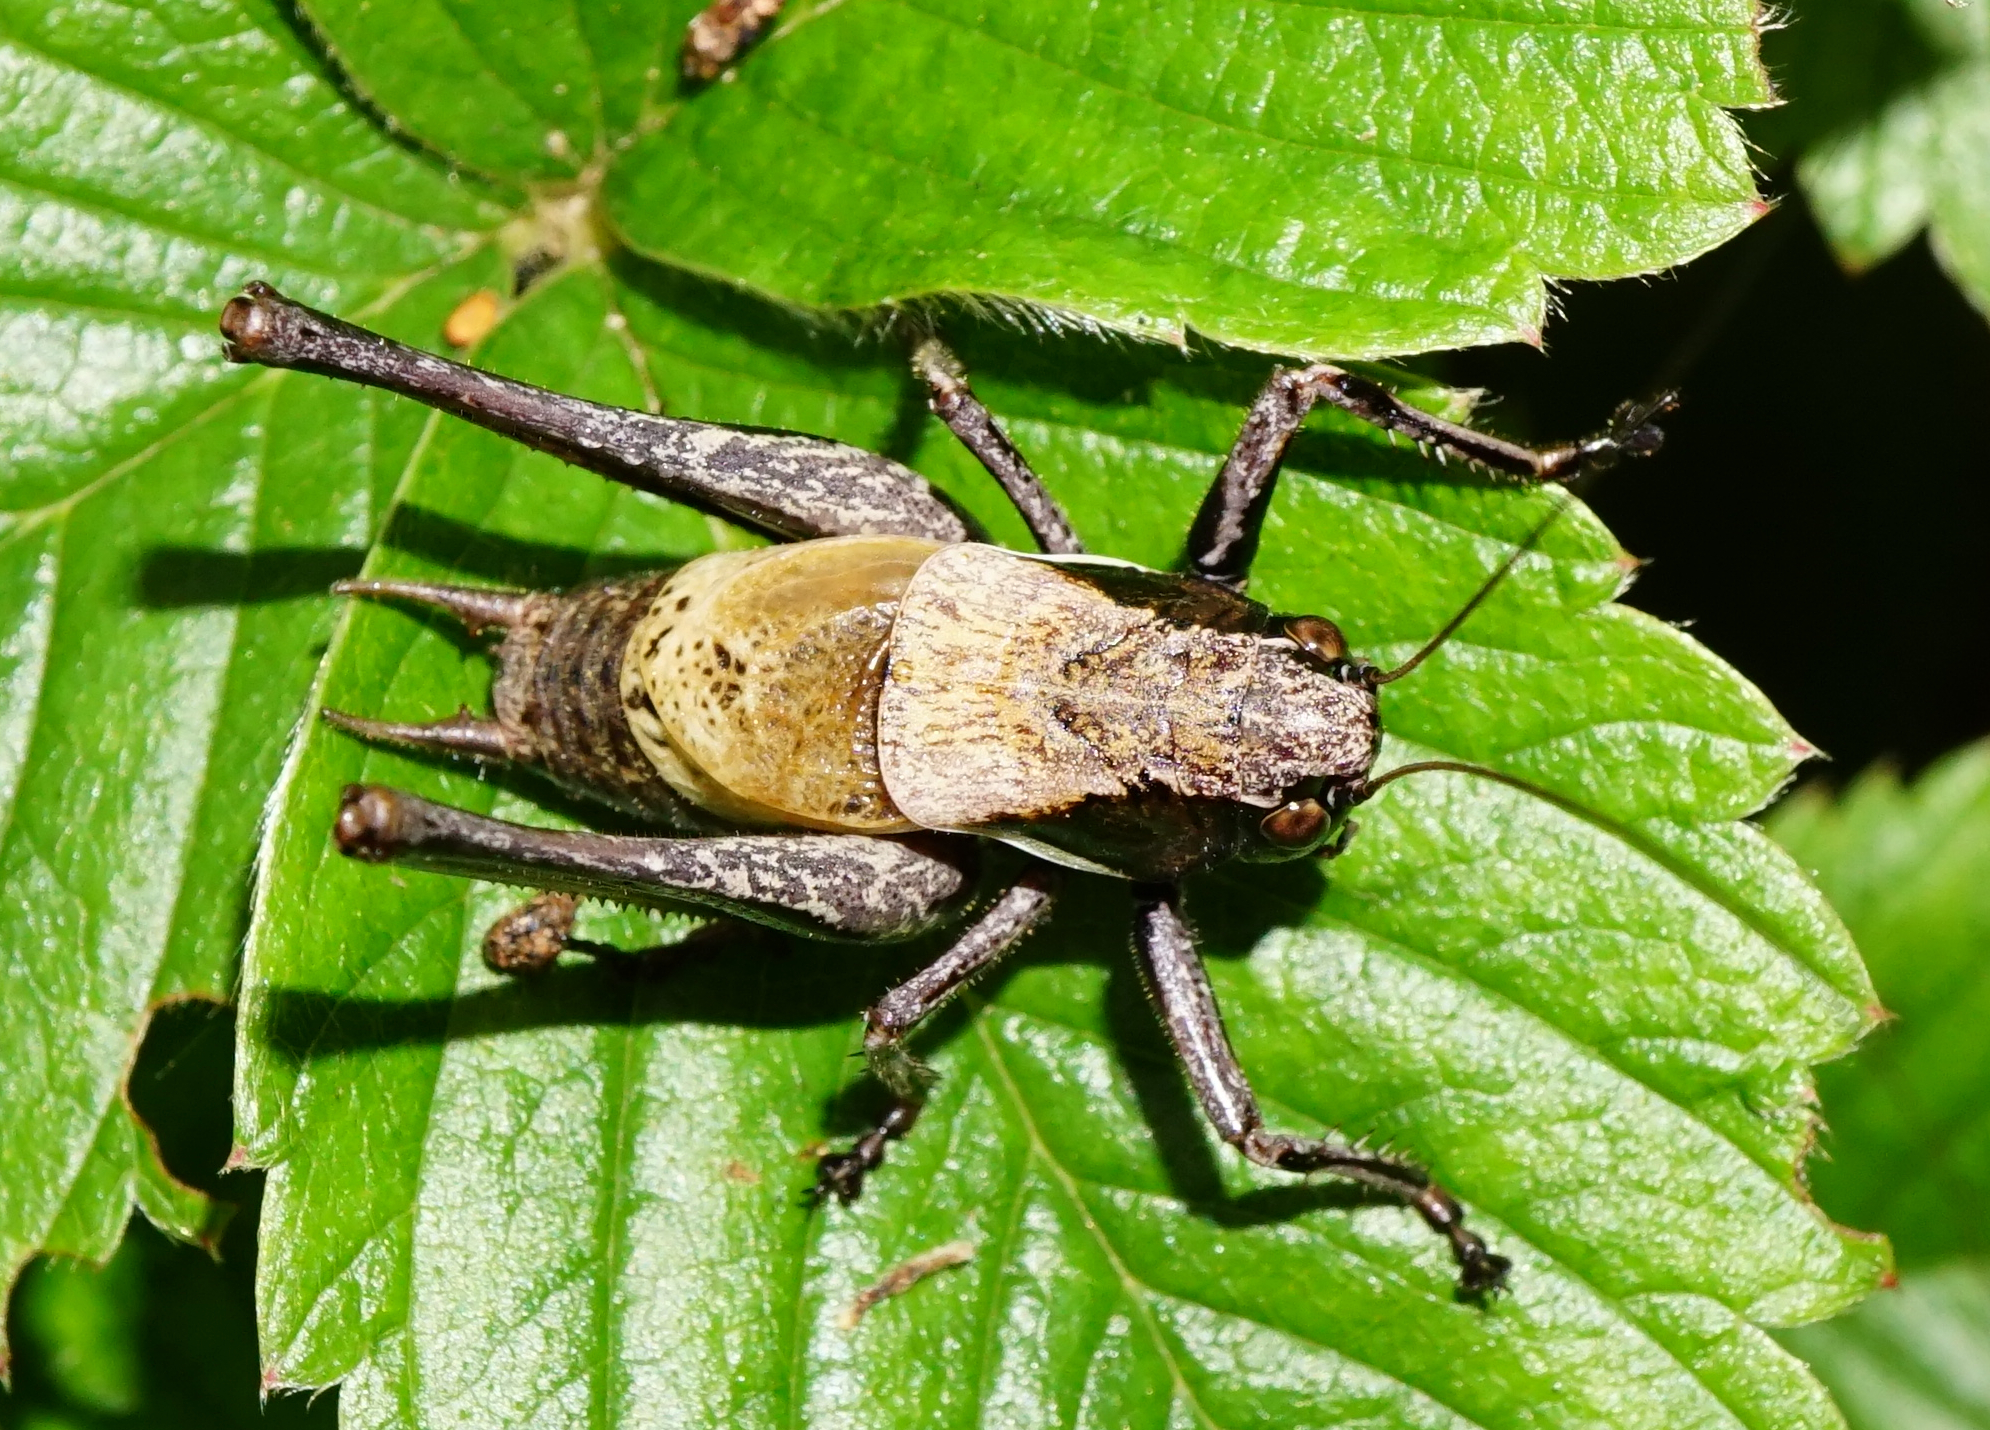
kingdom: Animalia
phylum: Arthropoda
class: Insecta
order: Orthoptera
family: Tettigoniidae
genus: Pholidoptera
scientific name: Pholidoptera aptera
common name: Alpine dark bush-cricket
